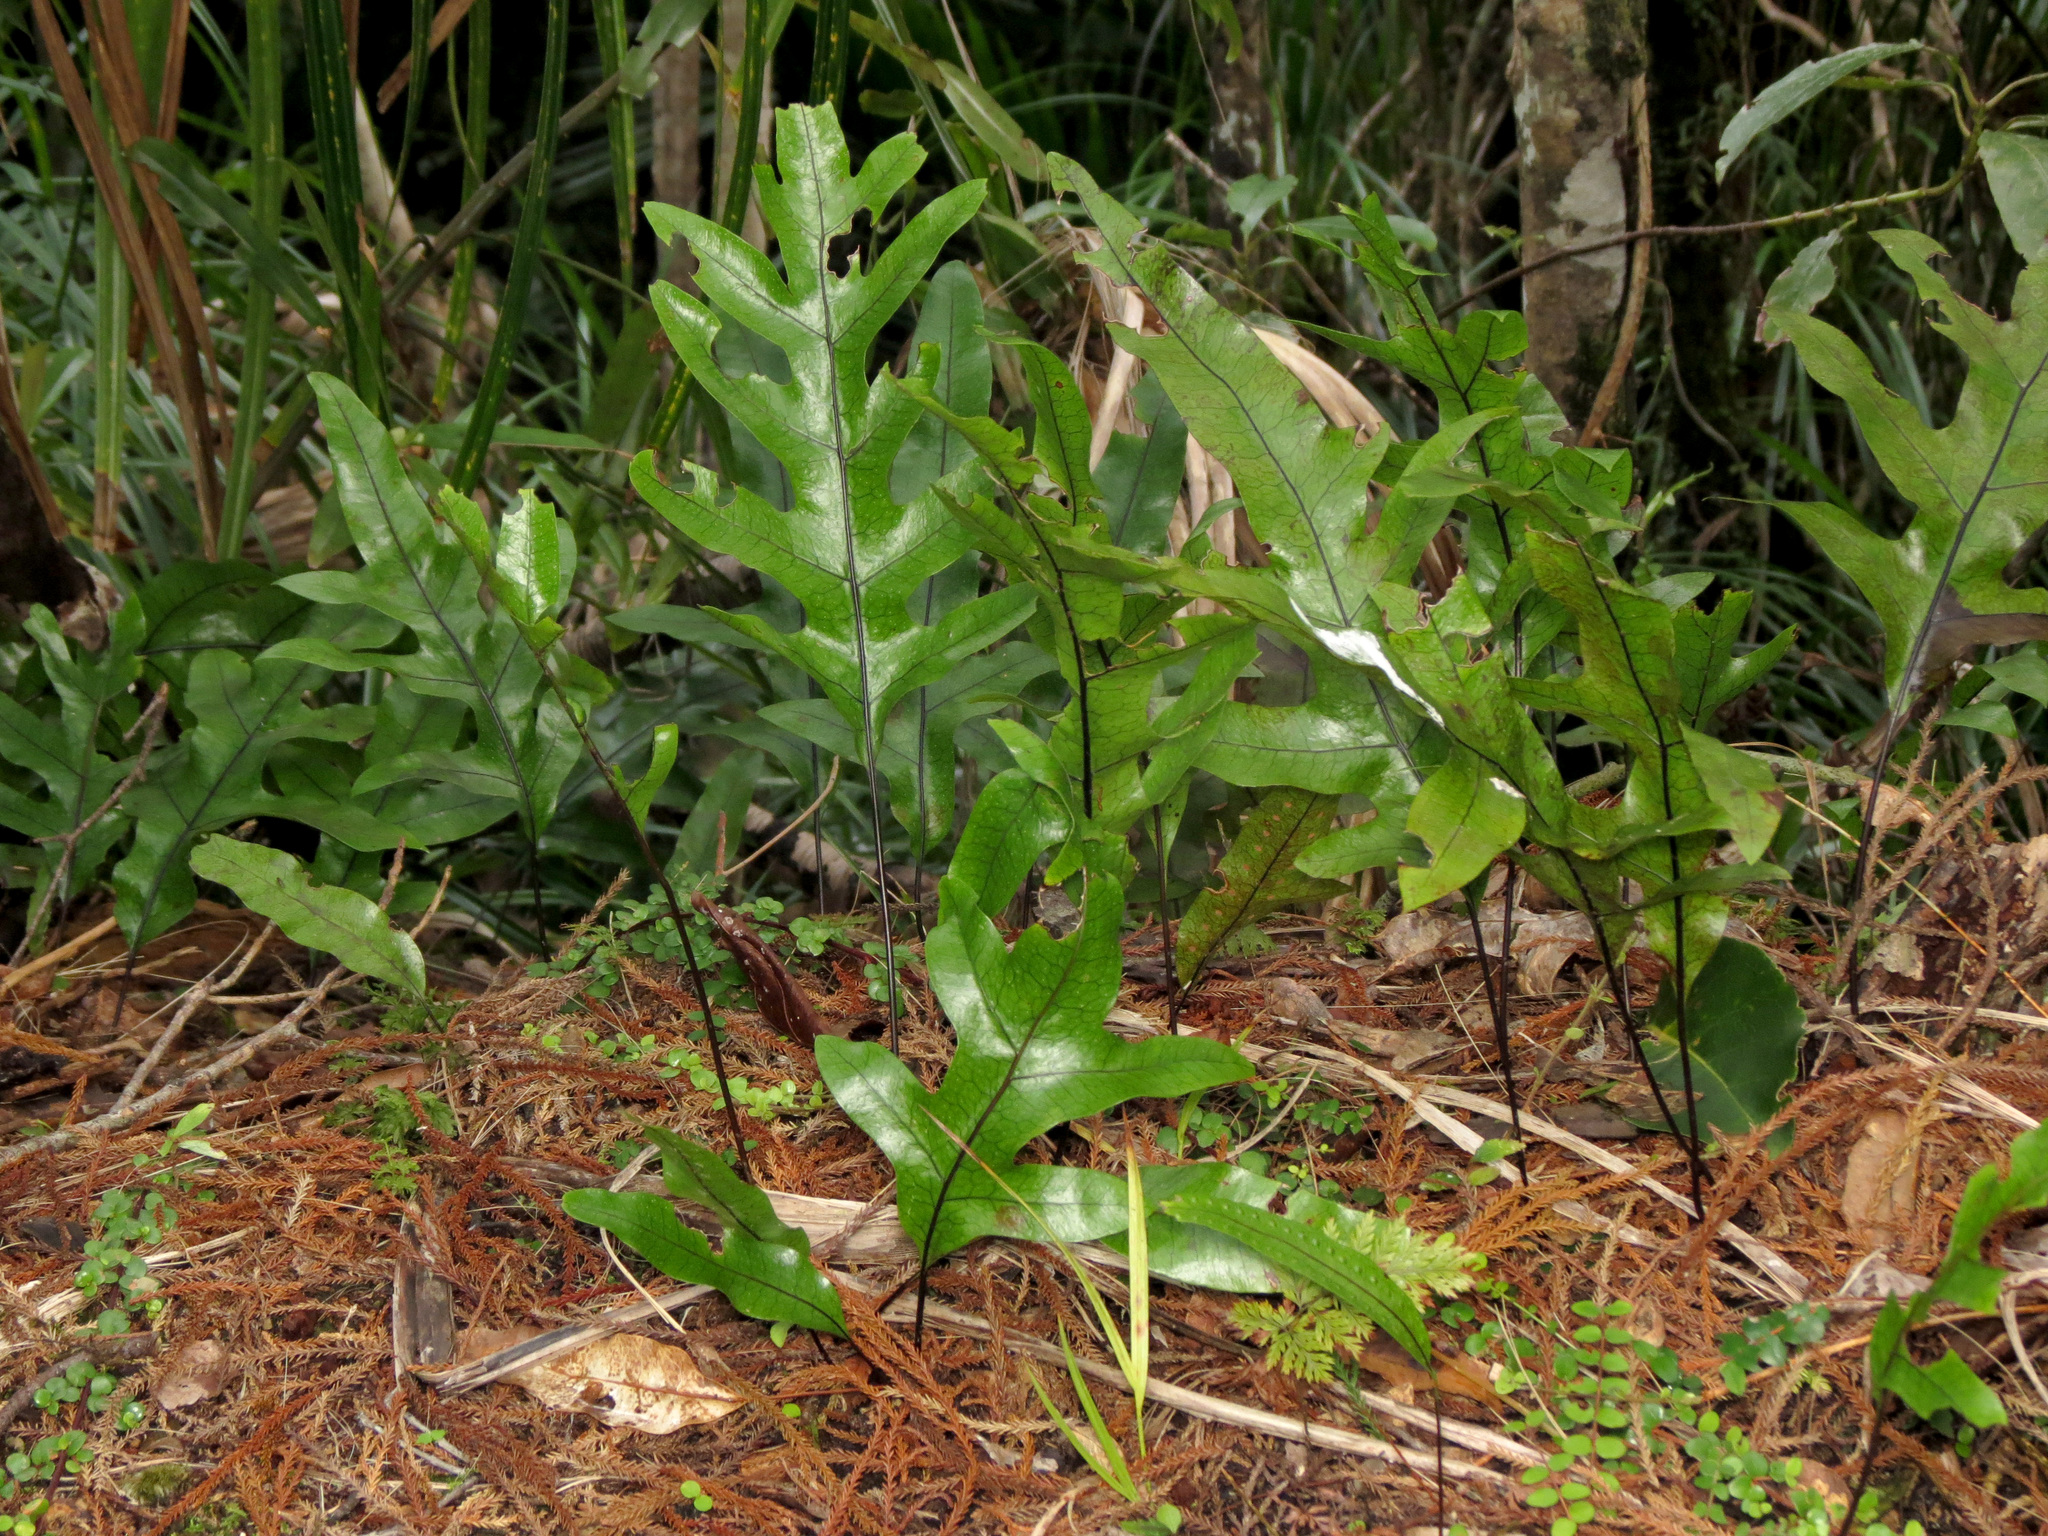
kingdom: Plantae
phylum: Tracheophyta
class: Polypodiopsida
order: Polypodiales
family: Polypodiaceae
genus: Lecanopteris
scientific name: Lecanopteris pustulata
